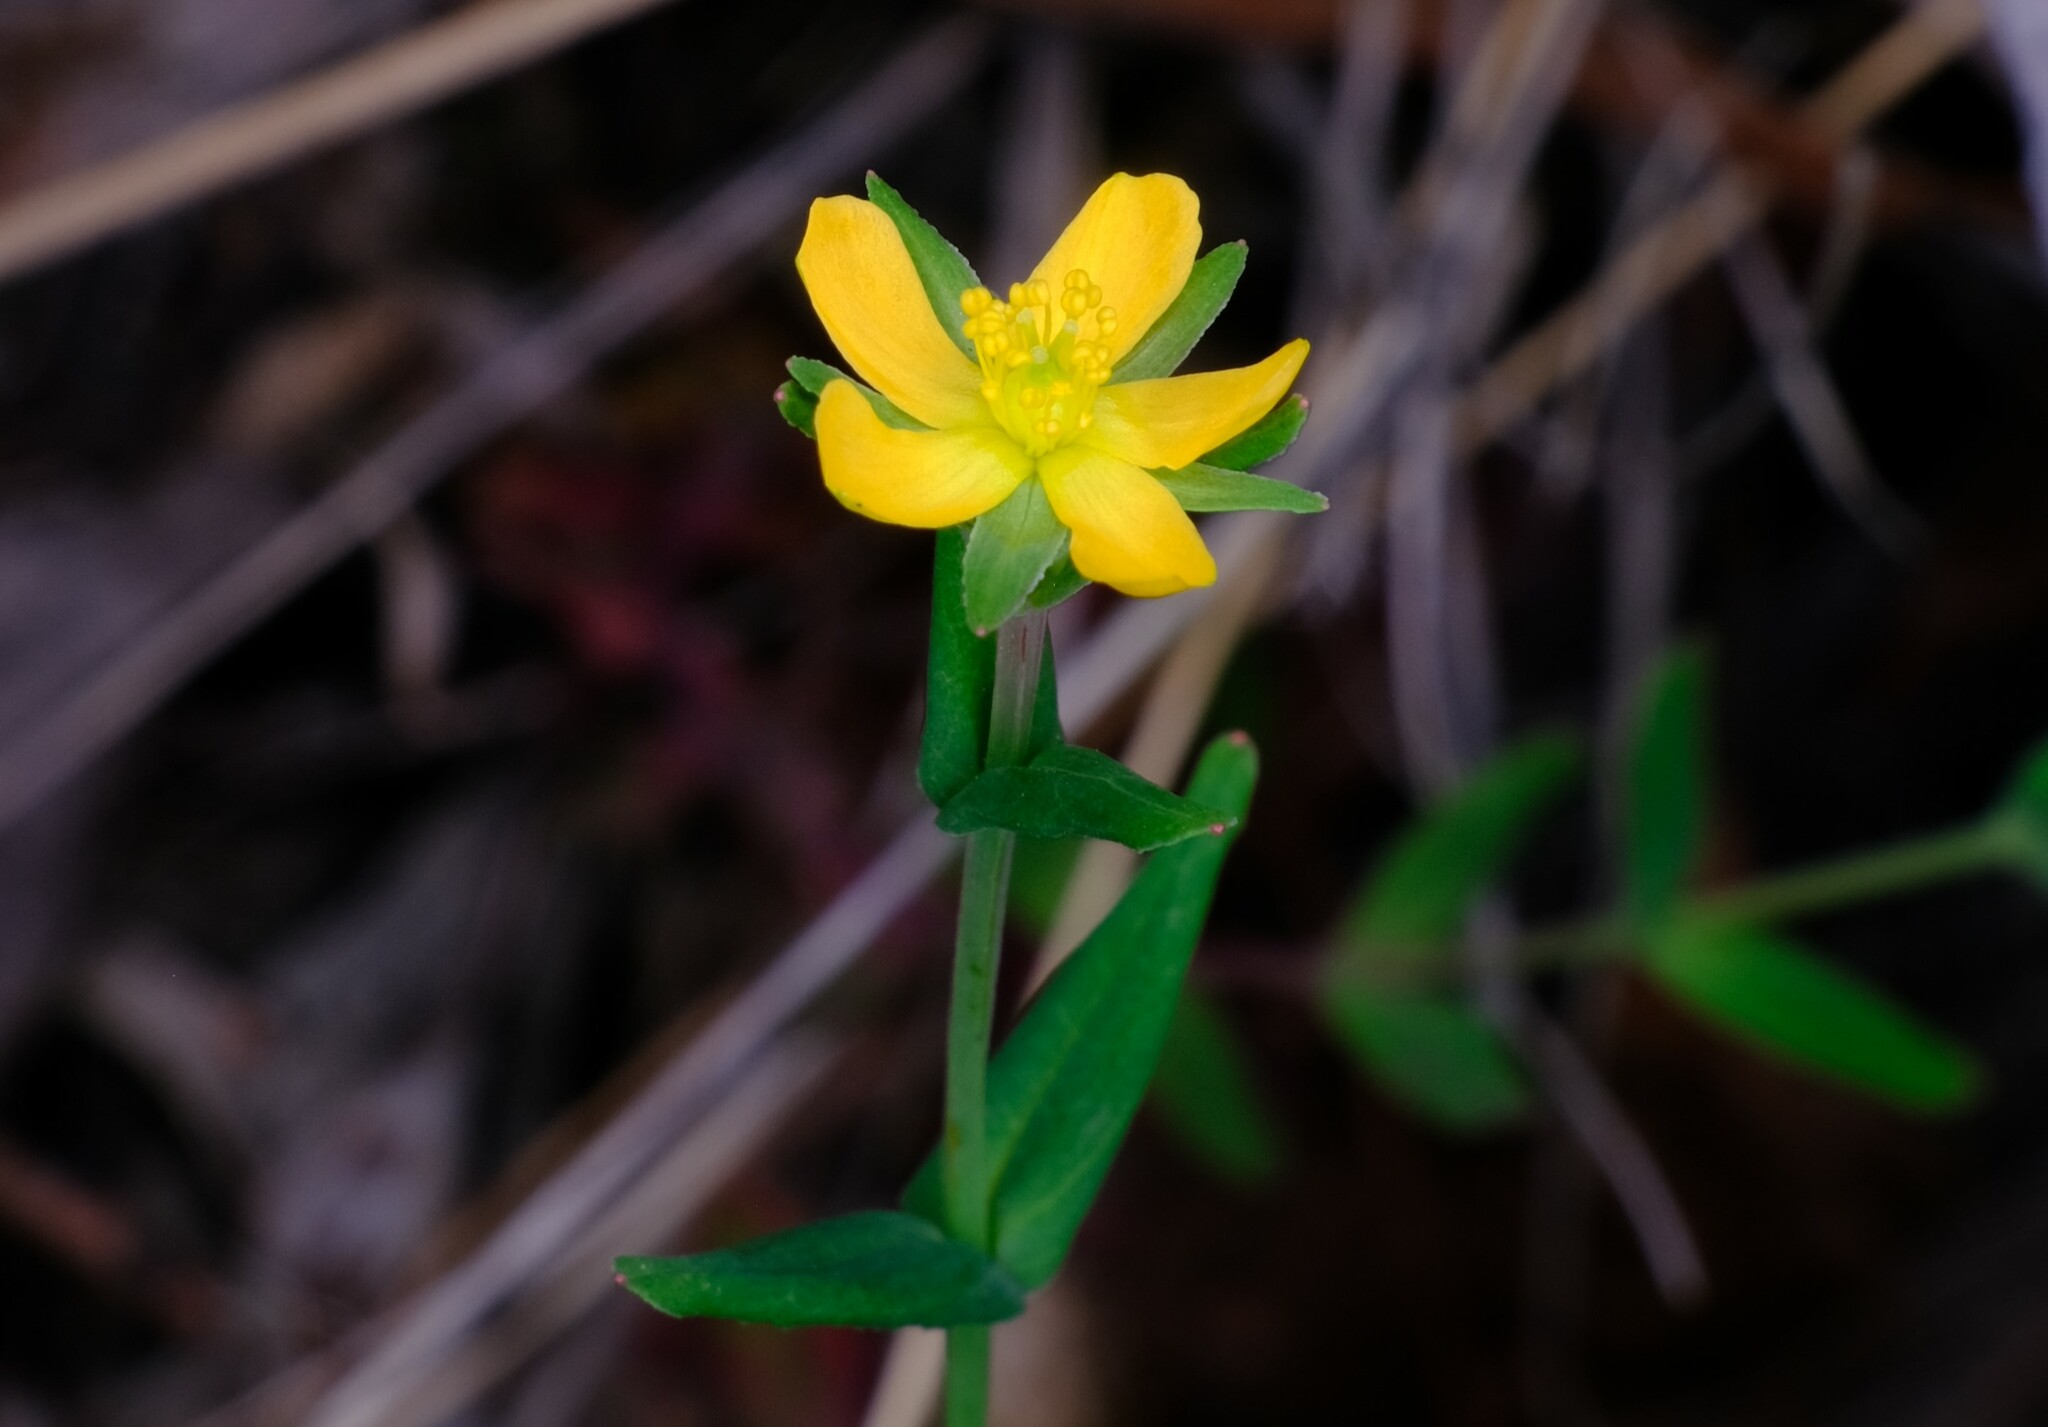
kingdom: Plantae
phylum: Tracheophyta
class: Magnoliopsida
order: Malpighiales
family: Hypericaceae
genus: Hypericum
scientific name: Hypericum gramineum
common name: Grassy st. johnswort
